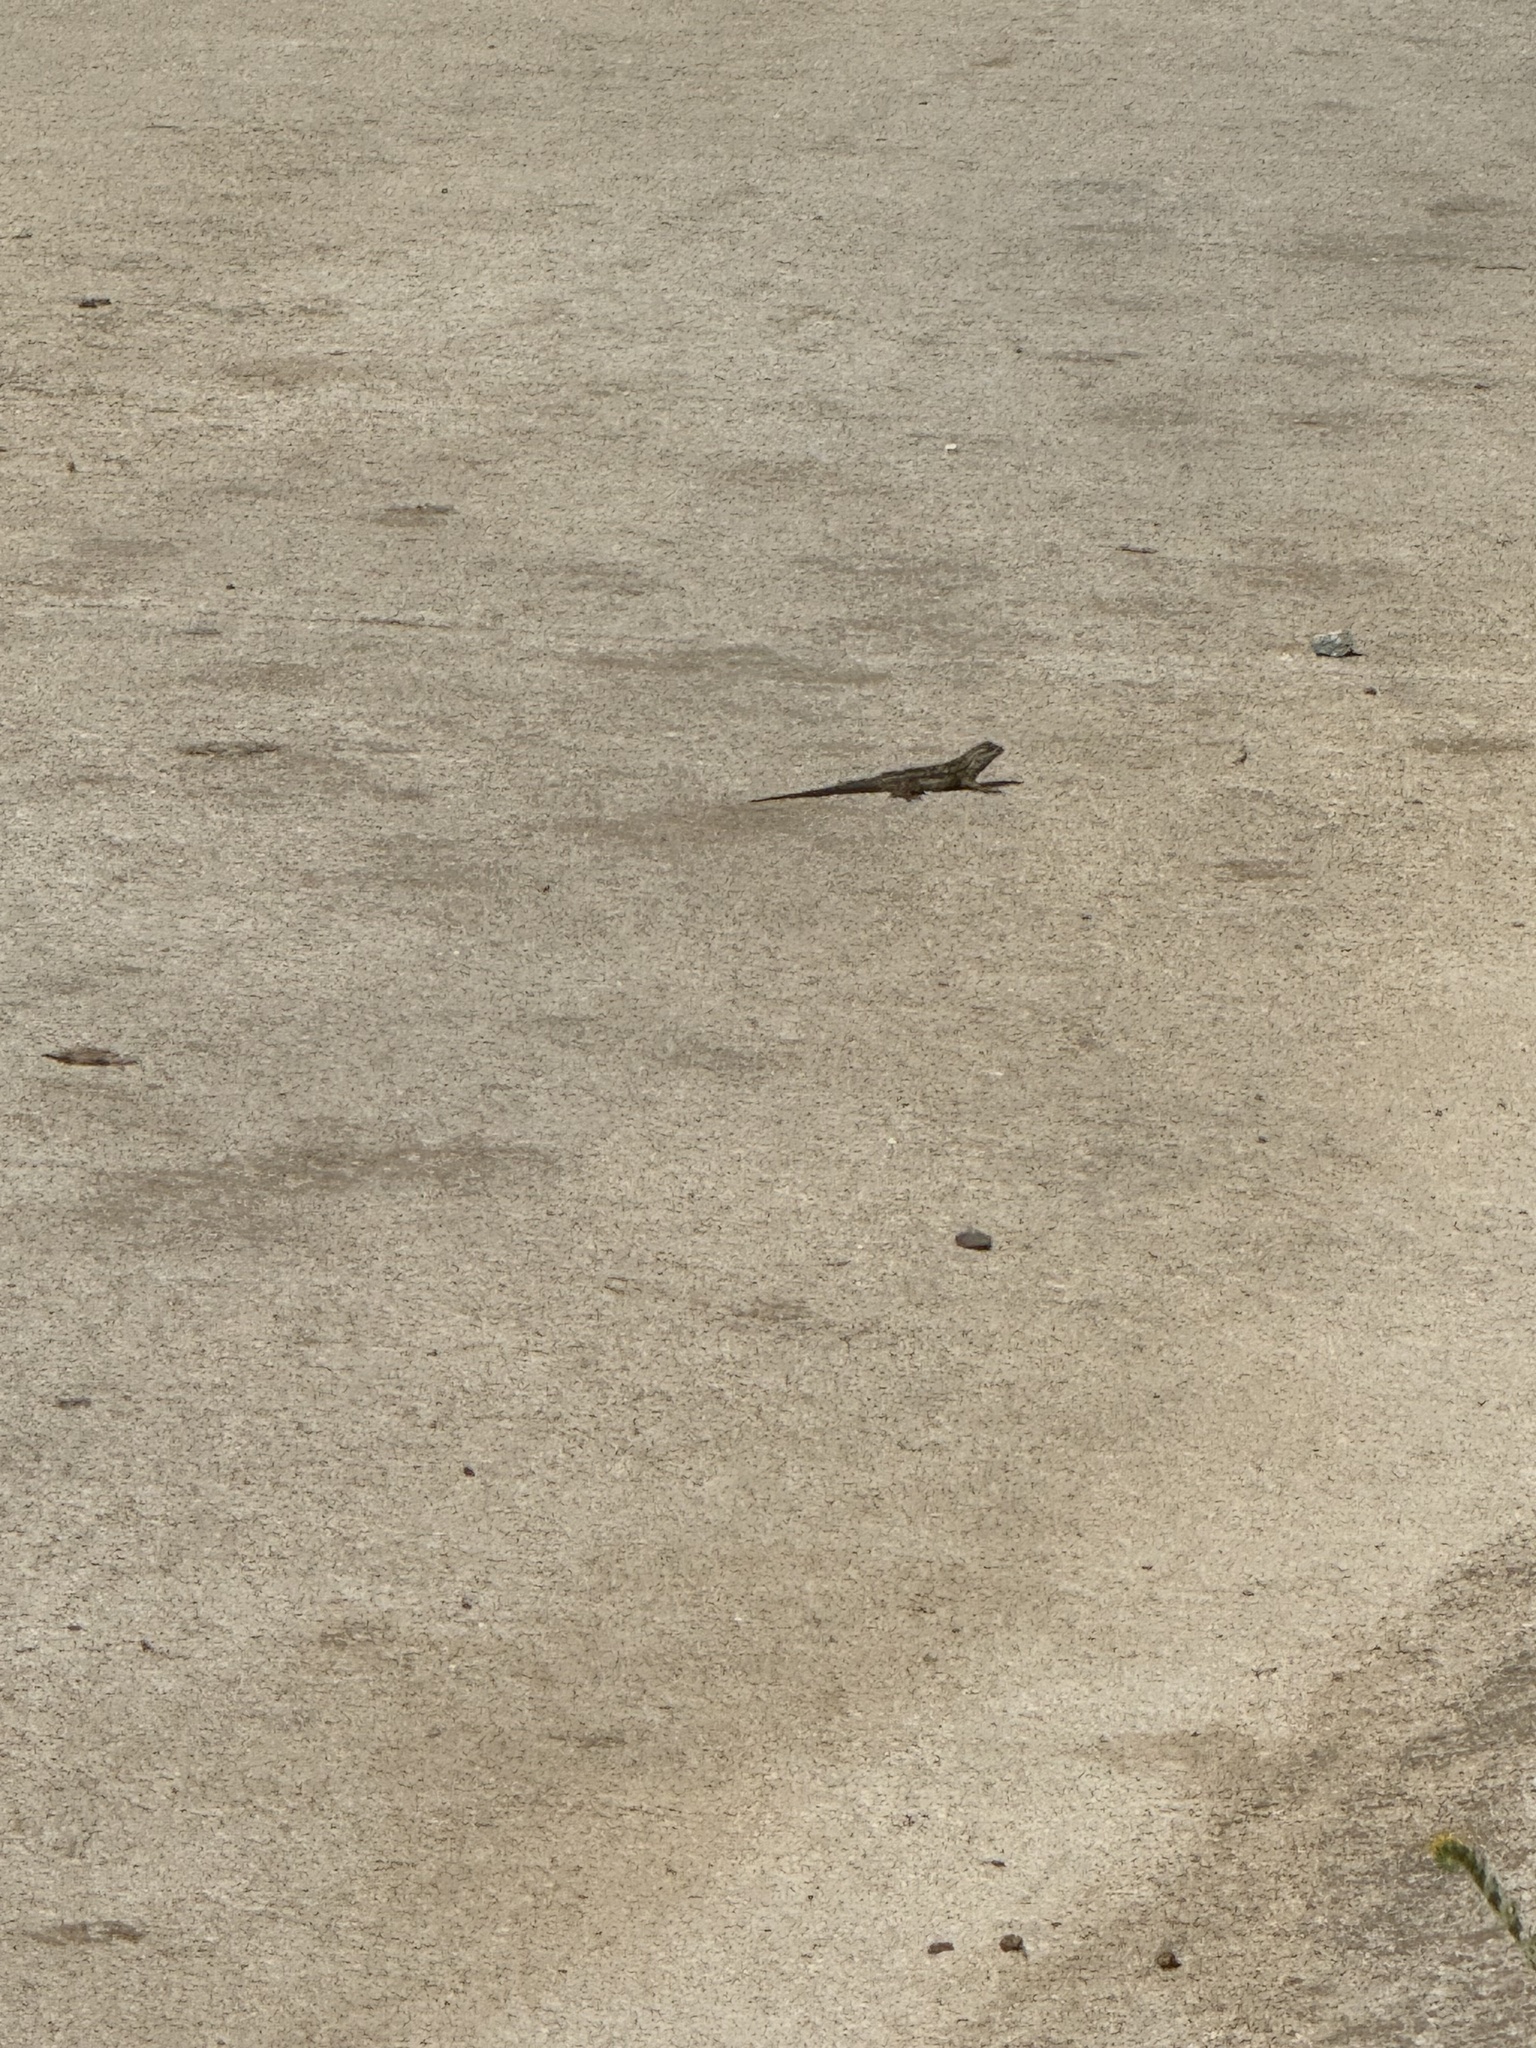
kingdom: Animalia
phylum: Chordata
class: Squamata
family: Phrynosomatidae
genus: Sceloporus
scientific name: Sceloporus occidentalis
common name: Western fence lizard
